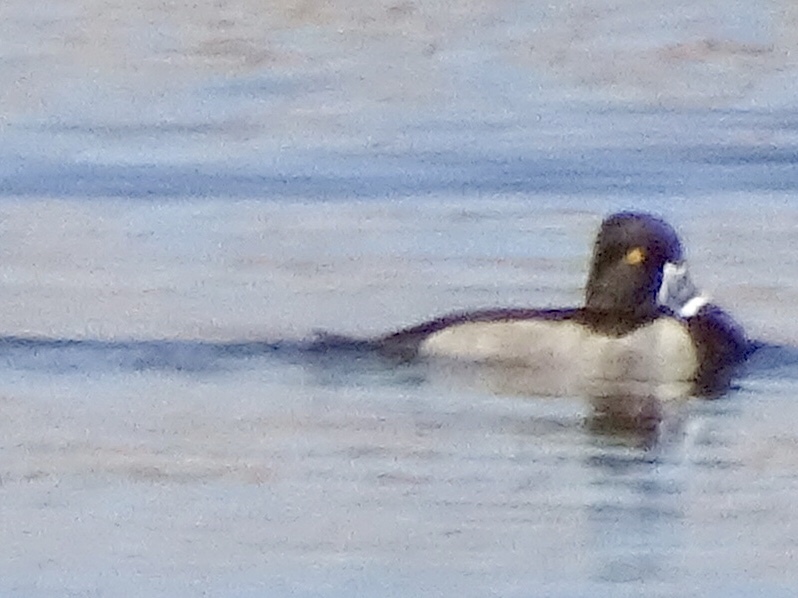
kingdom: Animalia
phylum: Chordata
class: Aves
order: Anseriformes
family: Anatidae
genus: Aythya
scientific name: Aythya collaris
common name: Ring-necked duck
